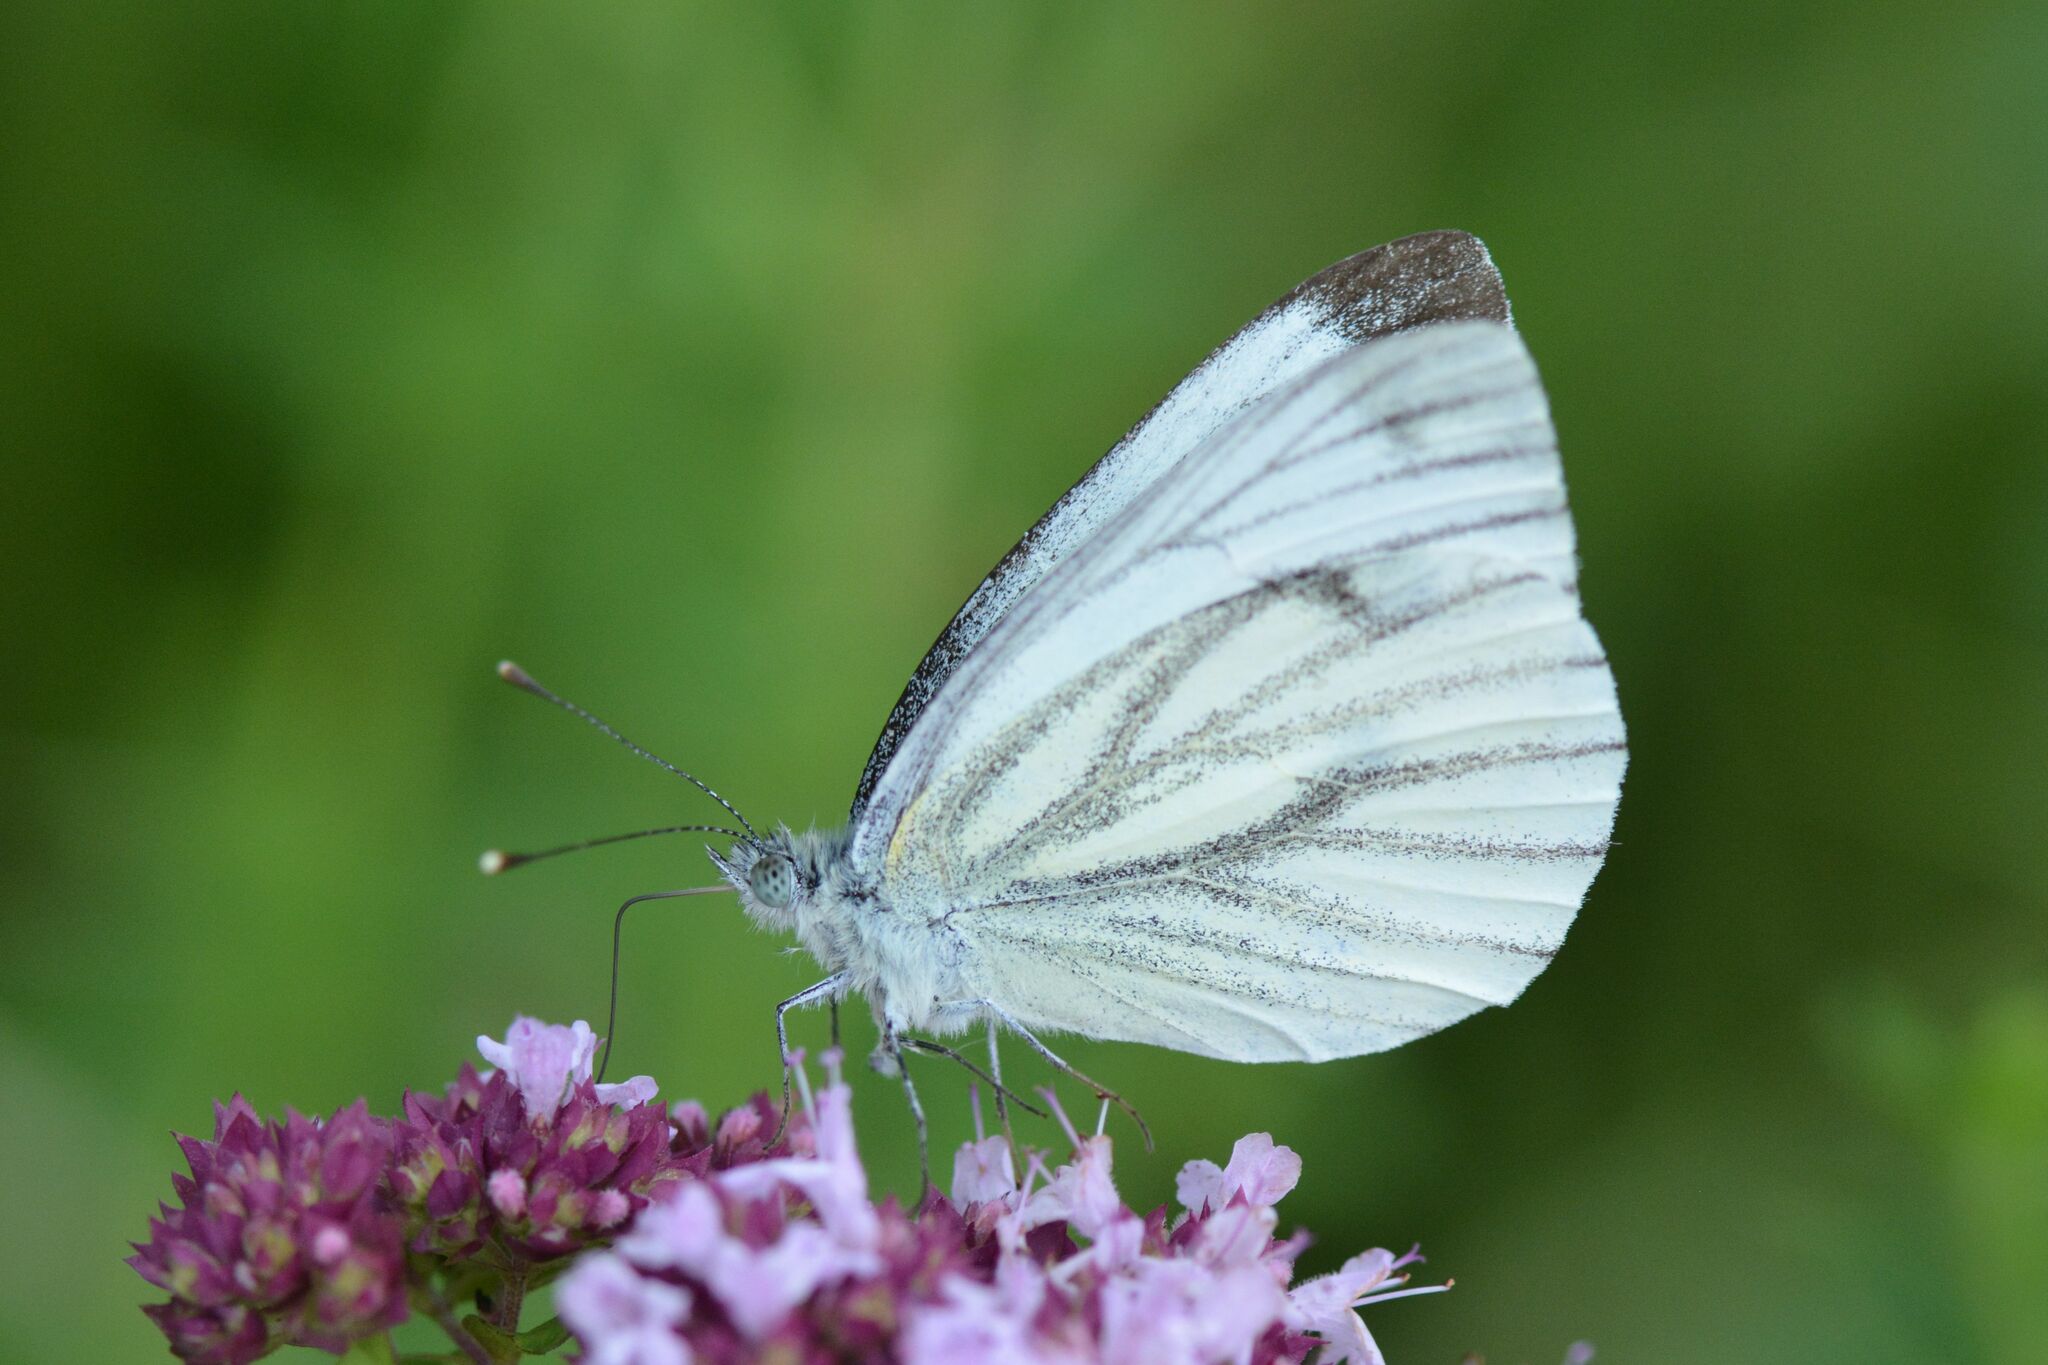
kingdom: Animalia
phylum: Arthropoda
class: Insecta
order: Lepidoptera
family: Pieridae
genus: Pieris
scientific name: Pieris napi
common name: Green-veined white
